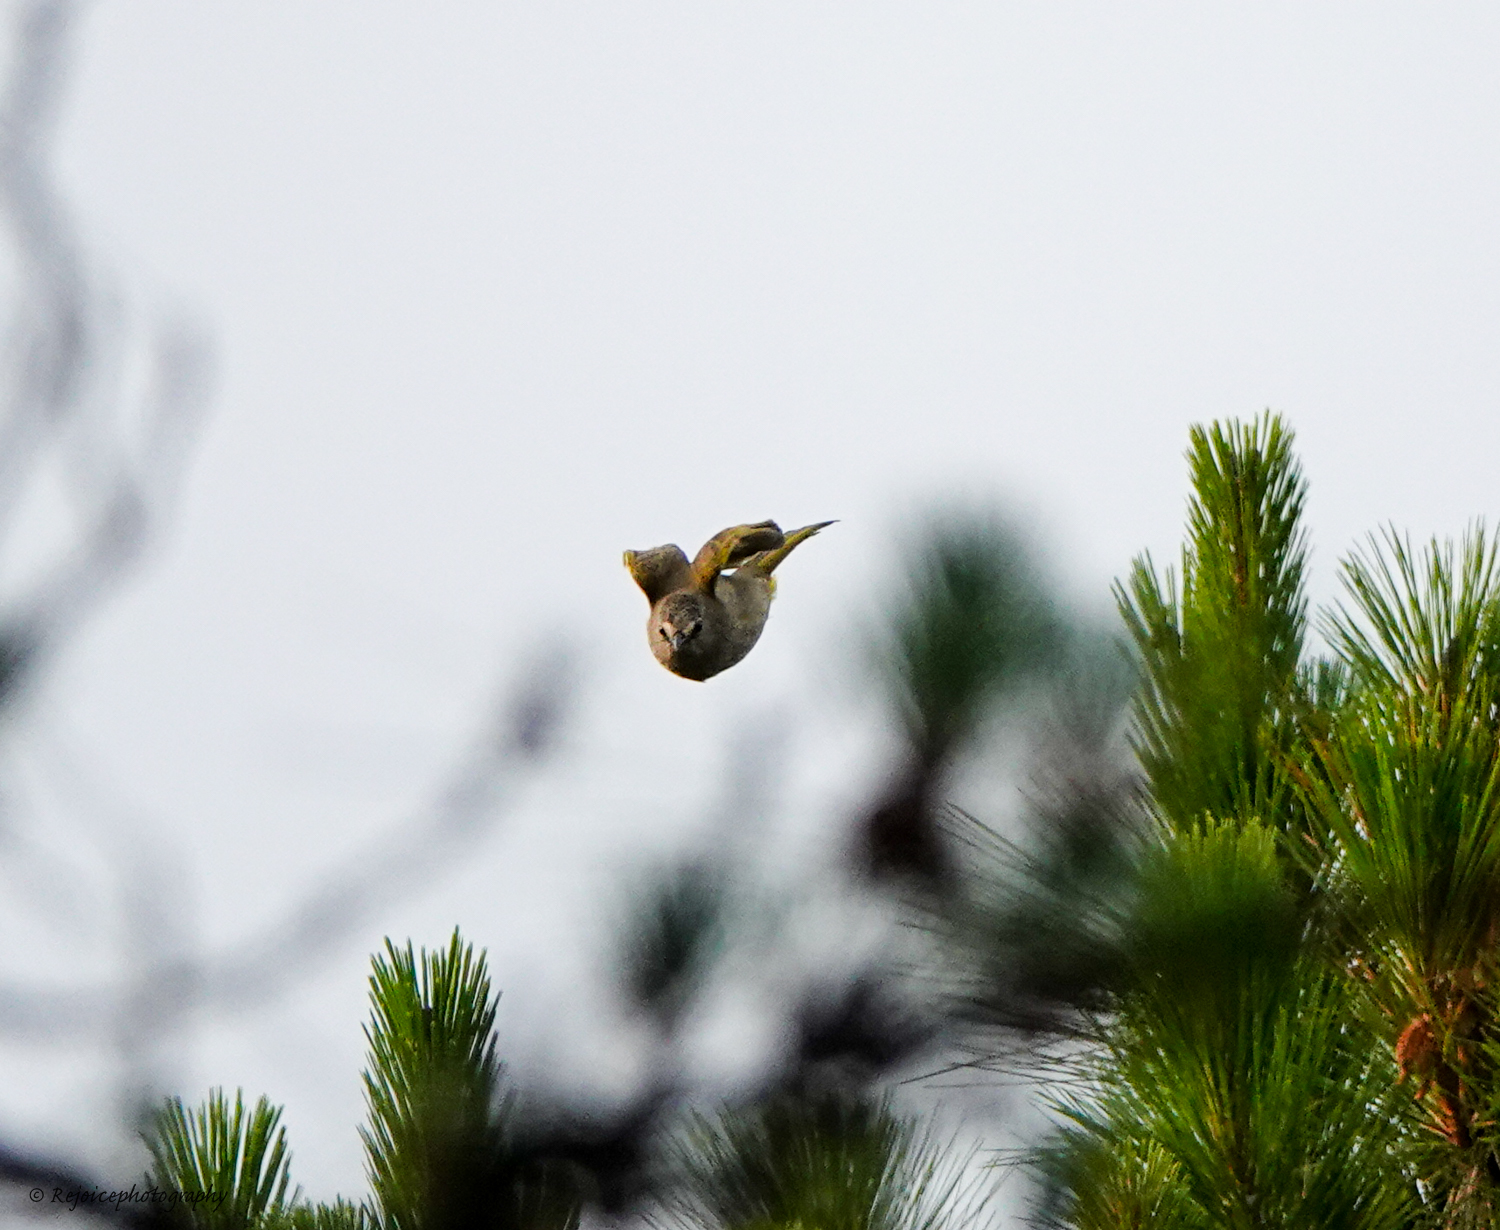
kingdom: Animalia
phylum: Chordata
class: Aves
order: Passeriformes
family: Pycnonotidae
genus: Pycnonotus
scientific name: Pycnonotus flavescens
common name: Flavescent bulbul
